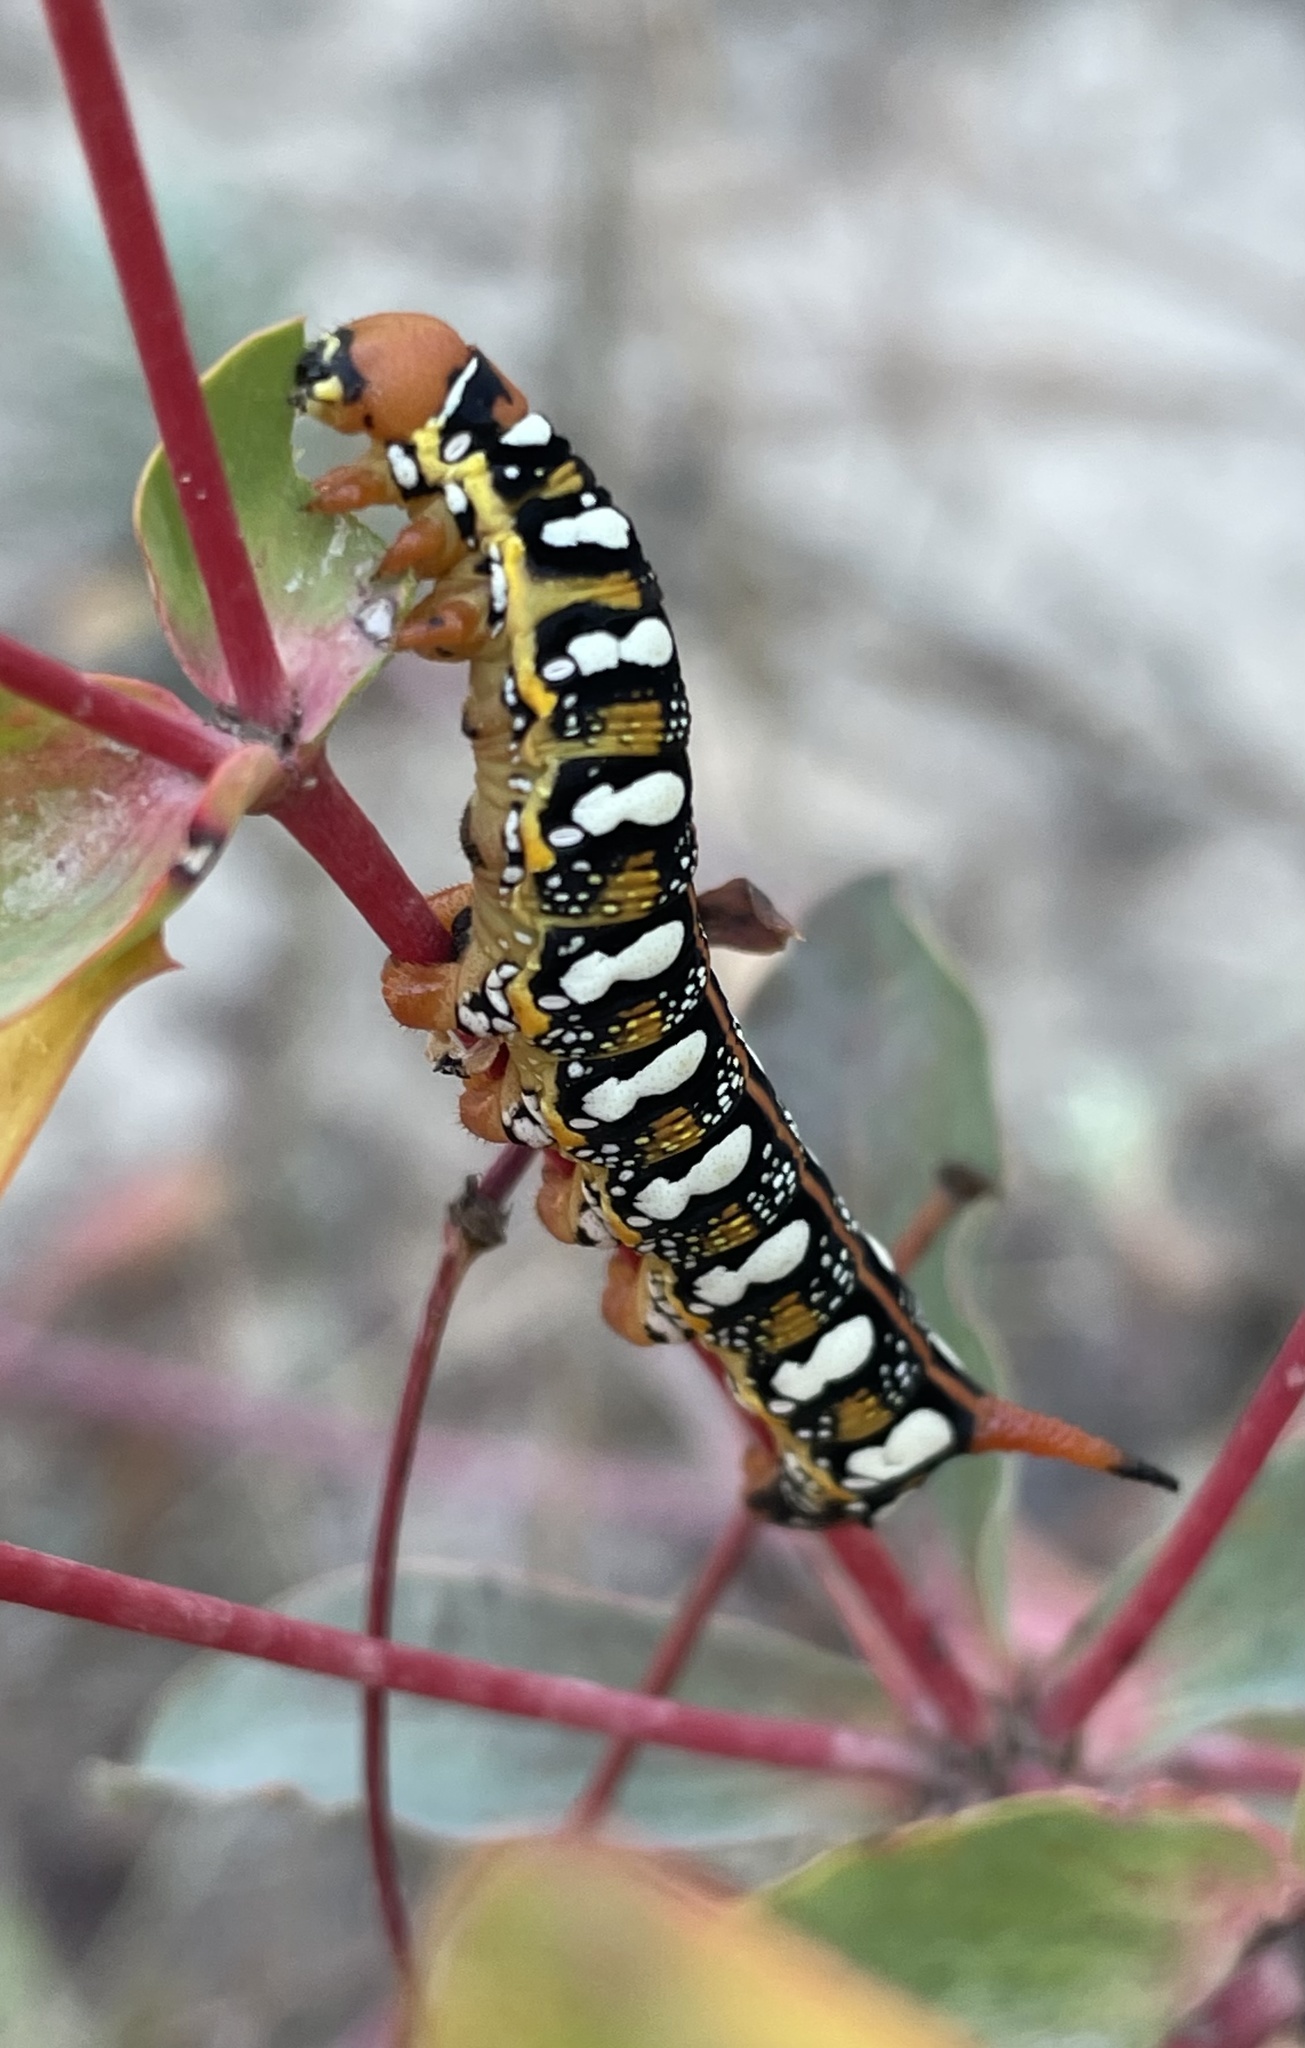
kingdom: Animalia
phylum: Arthropoda
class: Insecta
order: Lepidoptera
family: Sphingidae
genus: Hyles
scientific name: Hyles euphorbiae
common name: Spurge hawk-moth
